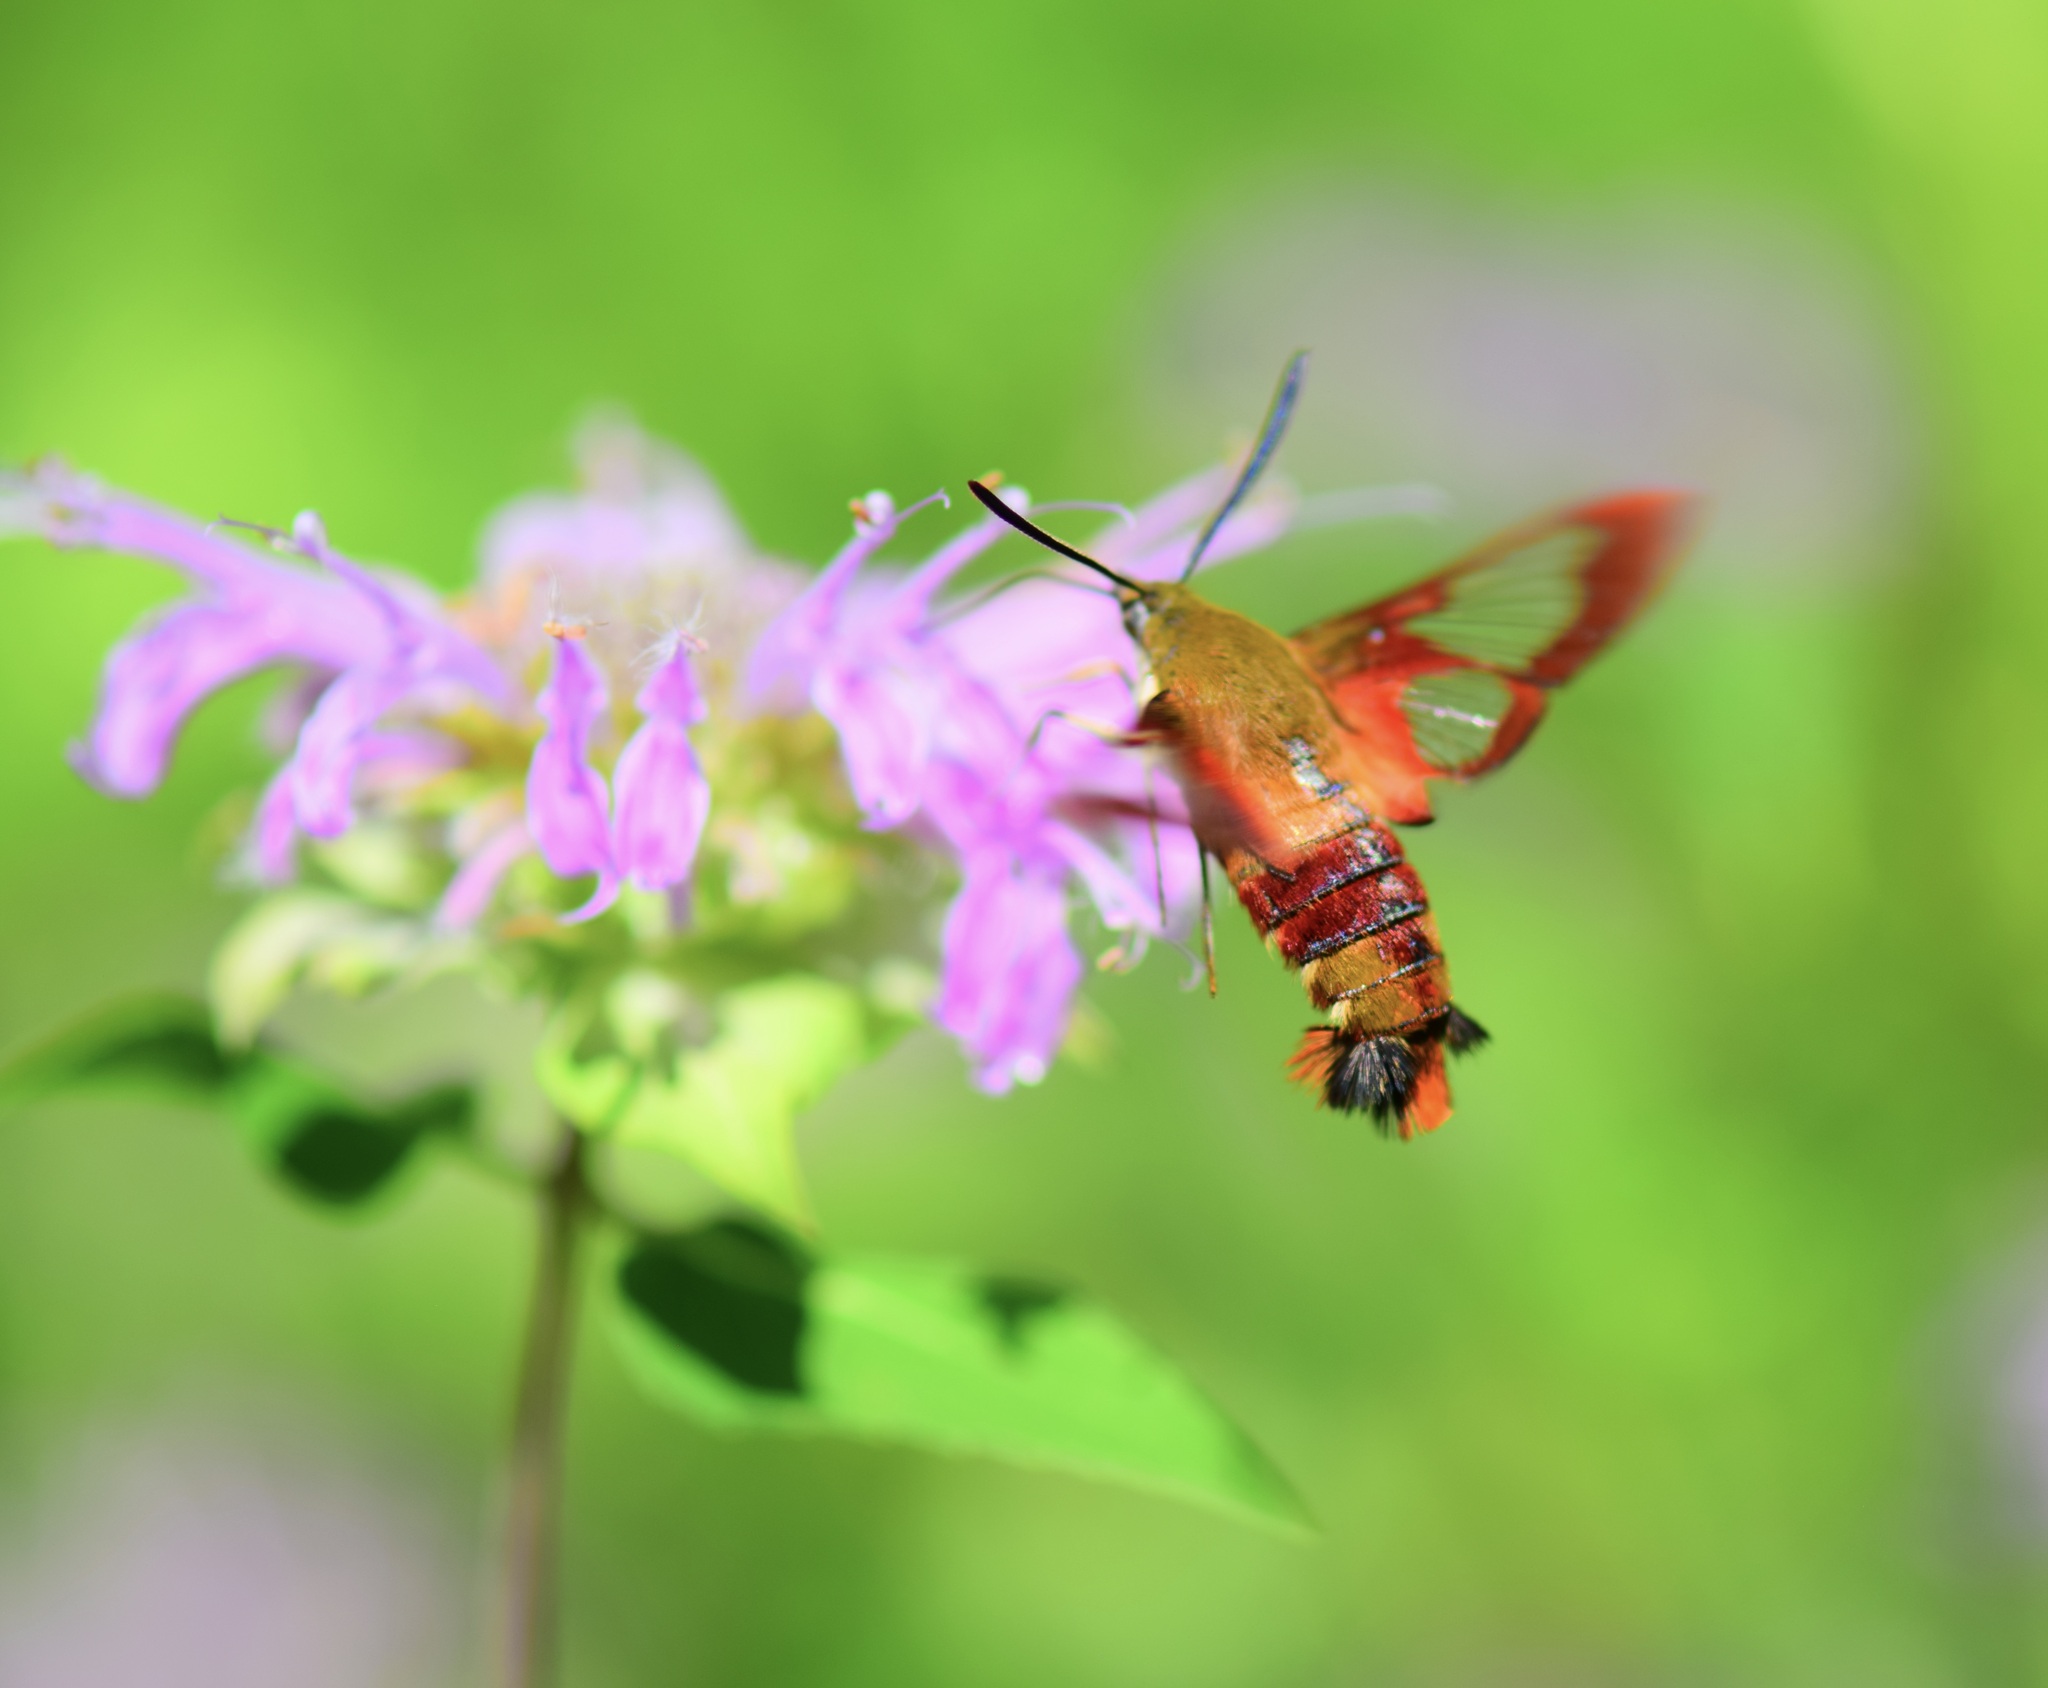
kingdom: Animalia
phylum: Arthropoda
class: Insecta
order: Lepidoptera
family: Sphingidae
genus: Hemaris
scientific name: Hemaris thysbe
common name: Common clear-wing
